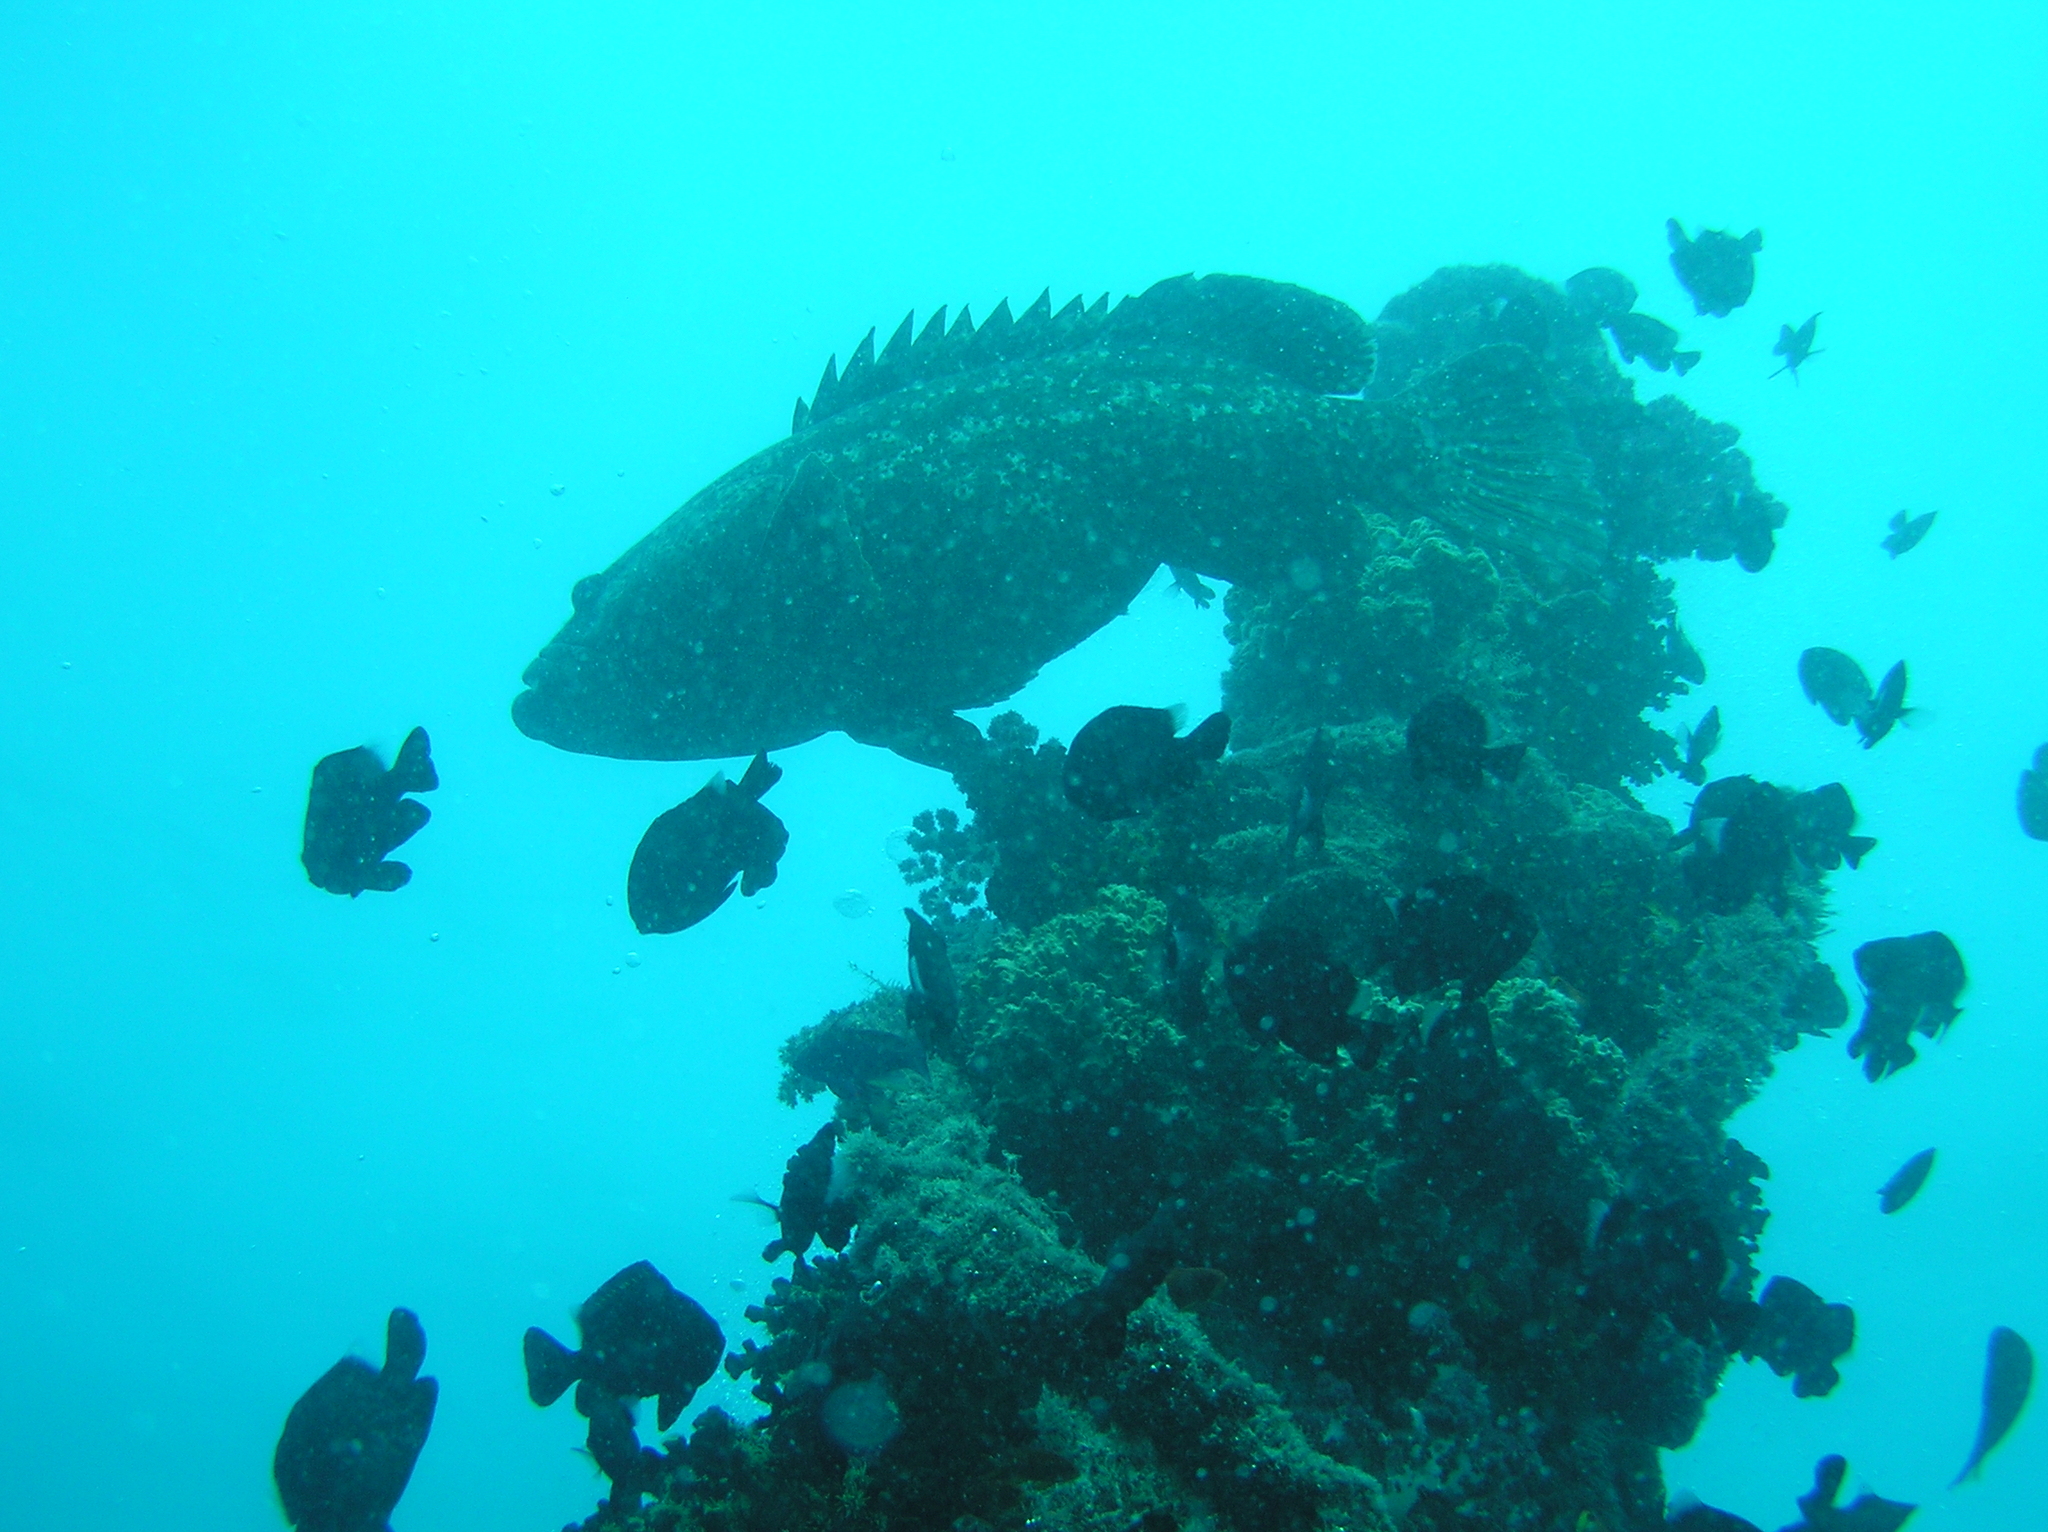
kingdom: Animalia
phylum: Chordata
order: Perciformes
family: Serranidae
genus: Epinephelus
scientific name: Epinephelus lanceolatus
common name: Giant grouper
